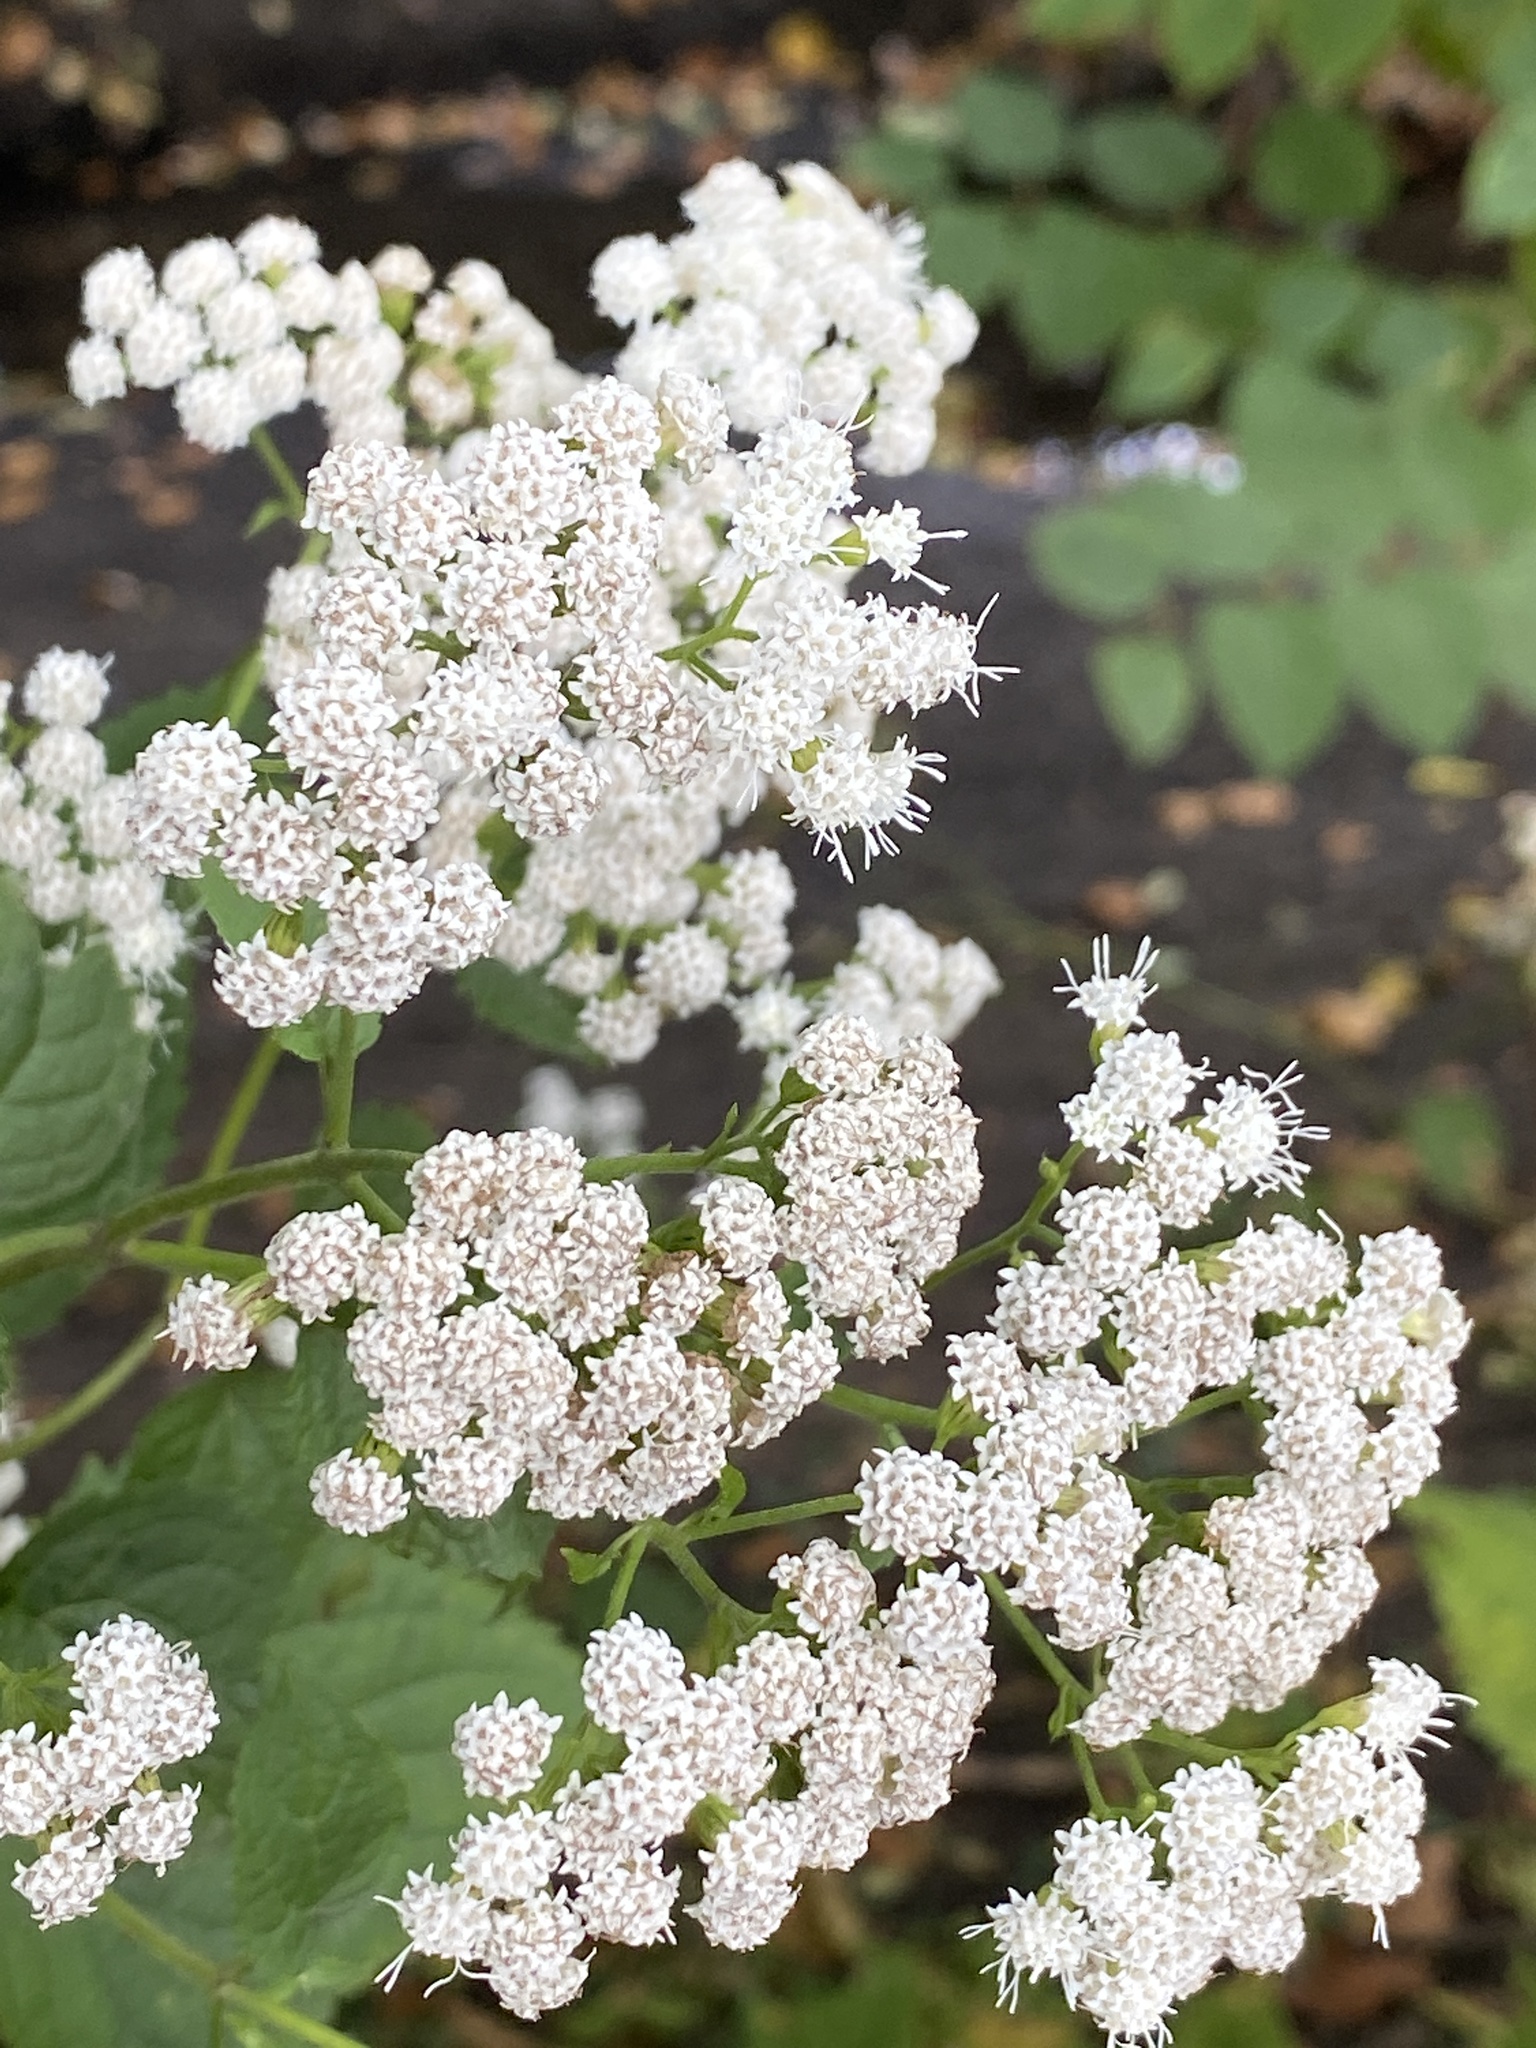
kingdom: Plantae
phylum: Tracheophyta
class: Magnoliopsida
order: Asterales
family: Asteraceae
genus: Ageratina
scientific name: Ageratina altissima
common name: White snakeroot
